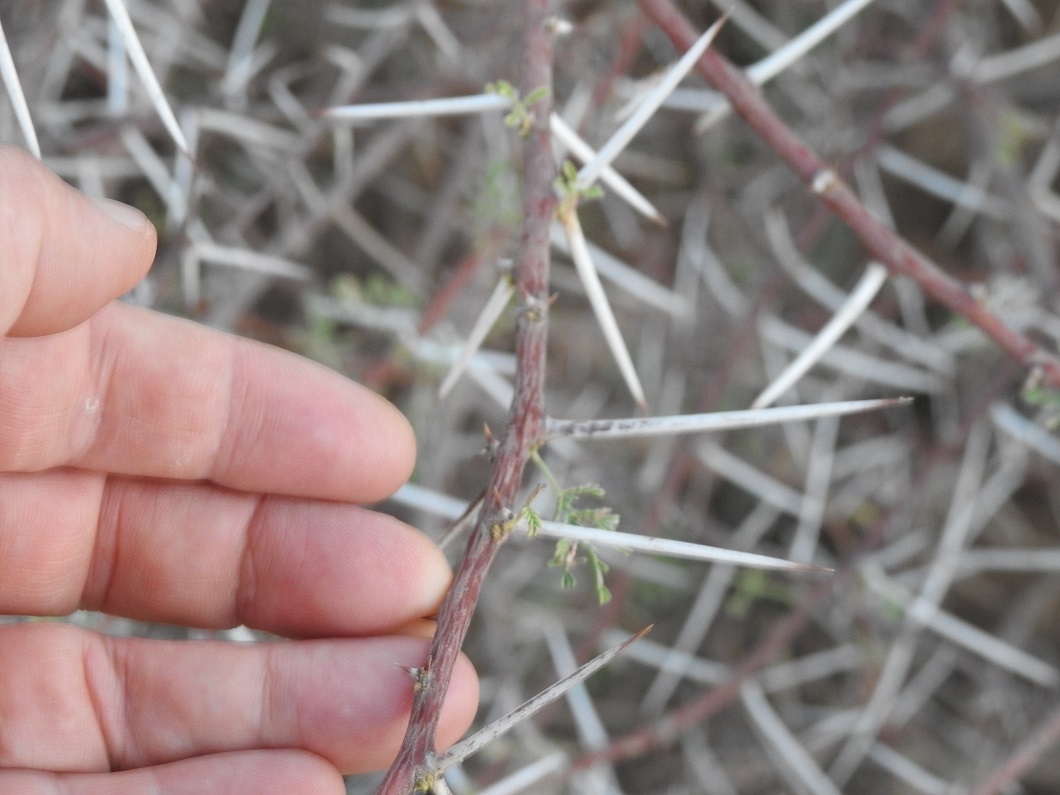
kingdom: Plantae
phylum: Tracheophyta
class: Magnoliopsida
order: Fabales
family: Fabaceae
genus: Vachellia
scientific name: Vachellia tortilis
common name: Umbrella thorn acacia
